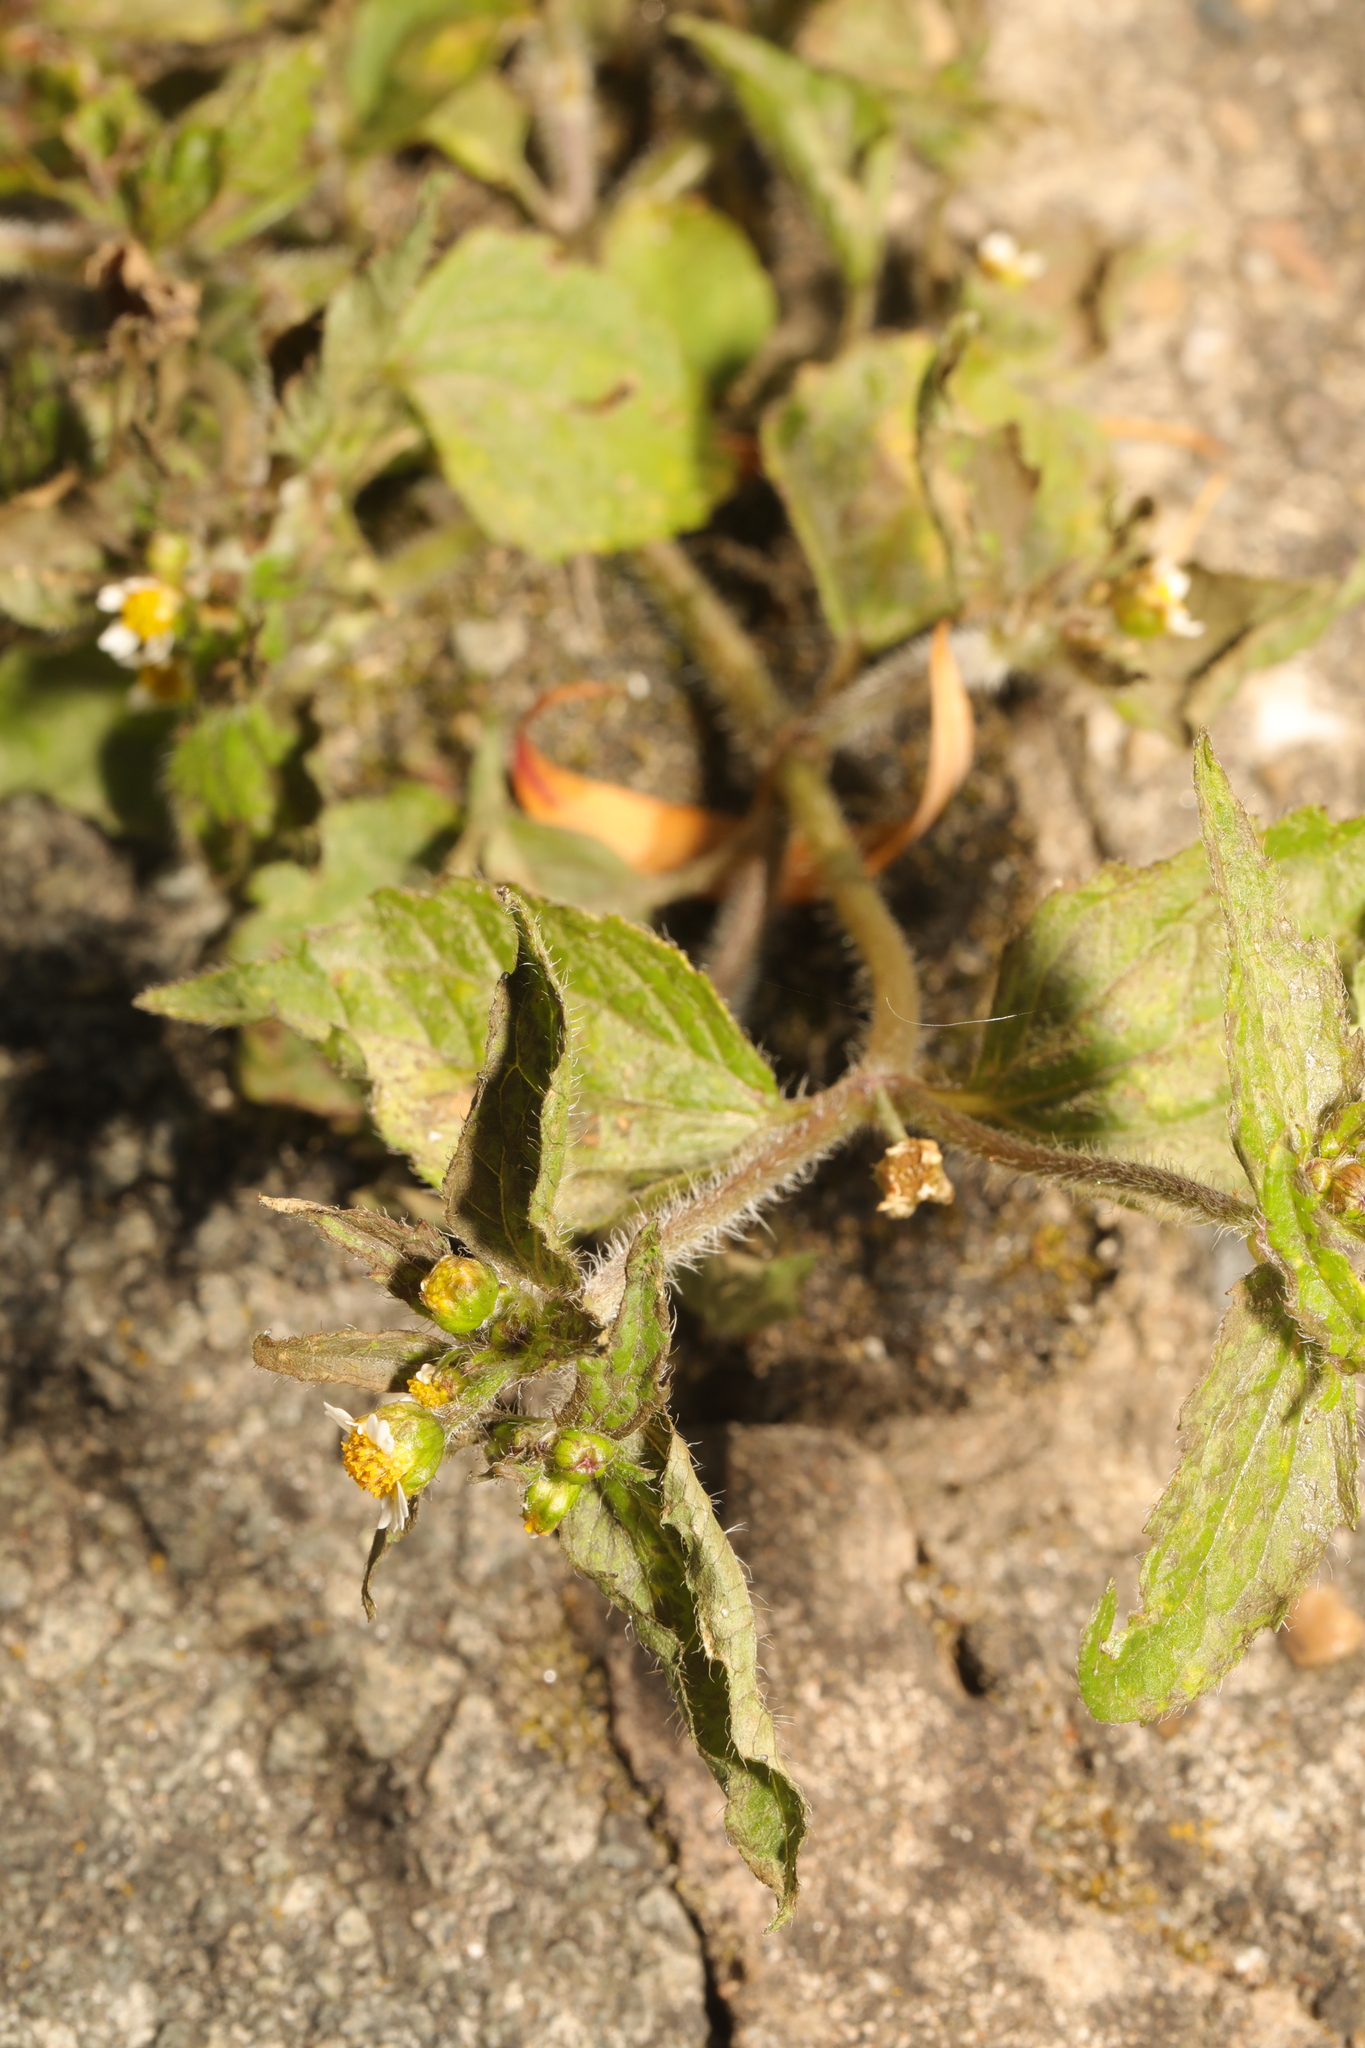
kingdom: Plantae
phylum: Tracheophyta
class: Magnoliopsida
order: Asterales
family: Asteraceae
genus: Galinsoga
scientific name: Galinsoga quadriradiata
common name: Shaggy soldier
